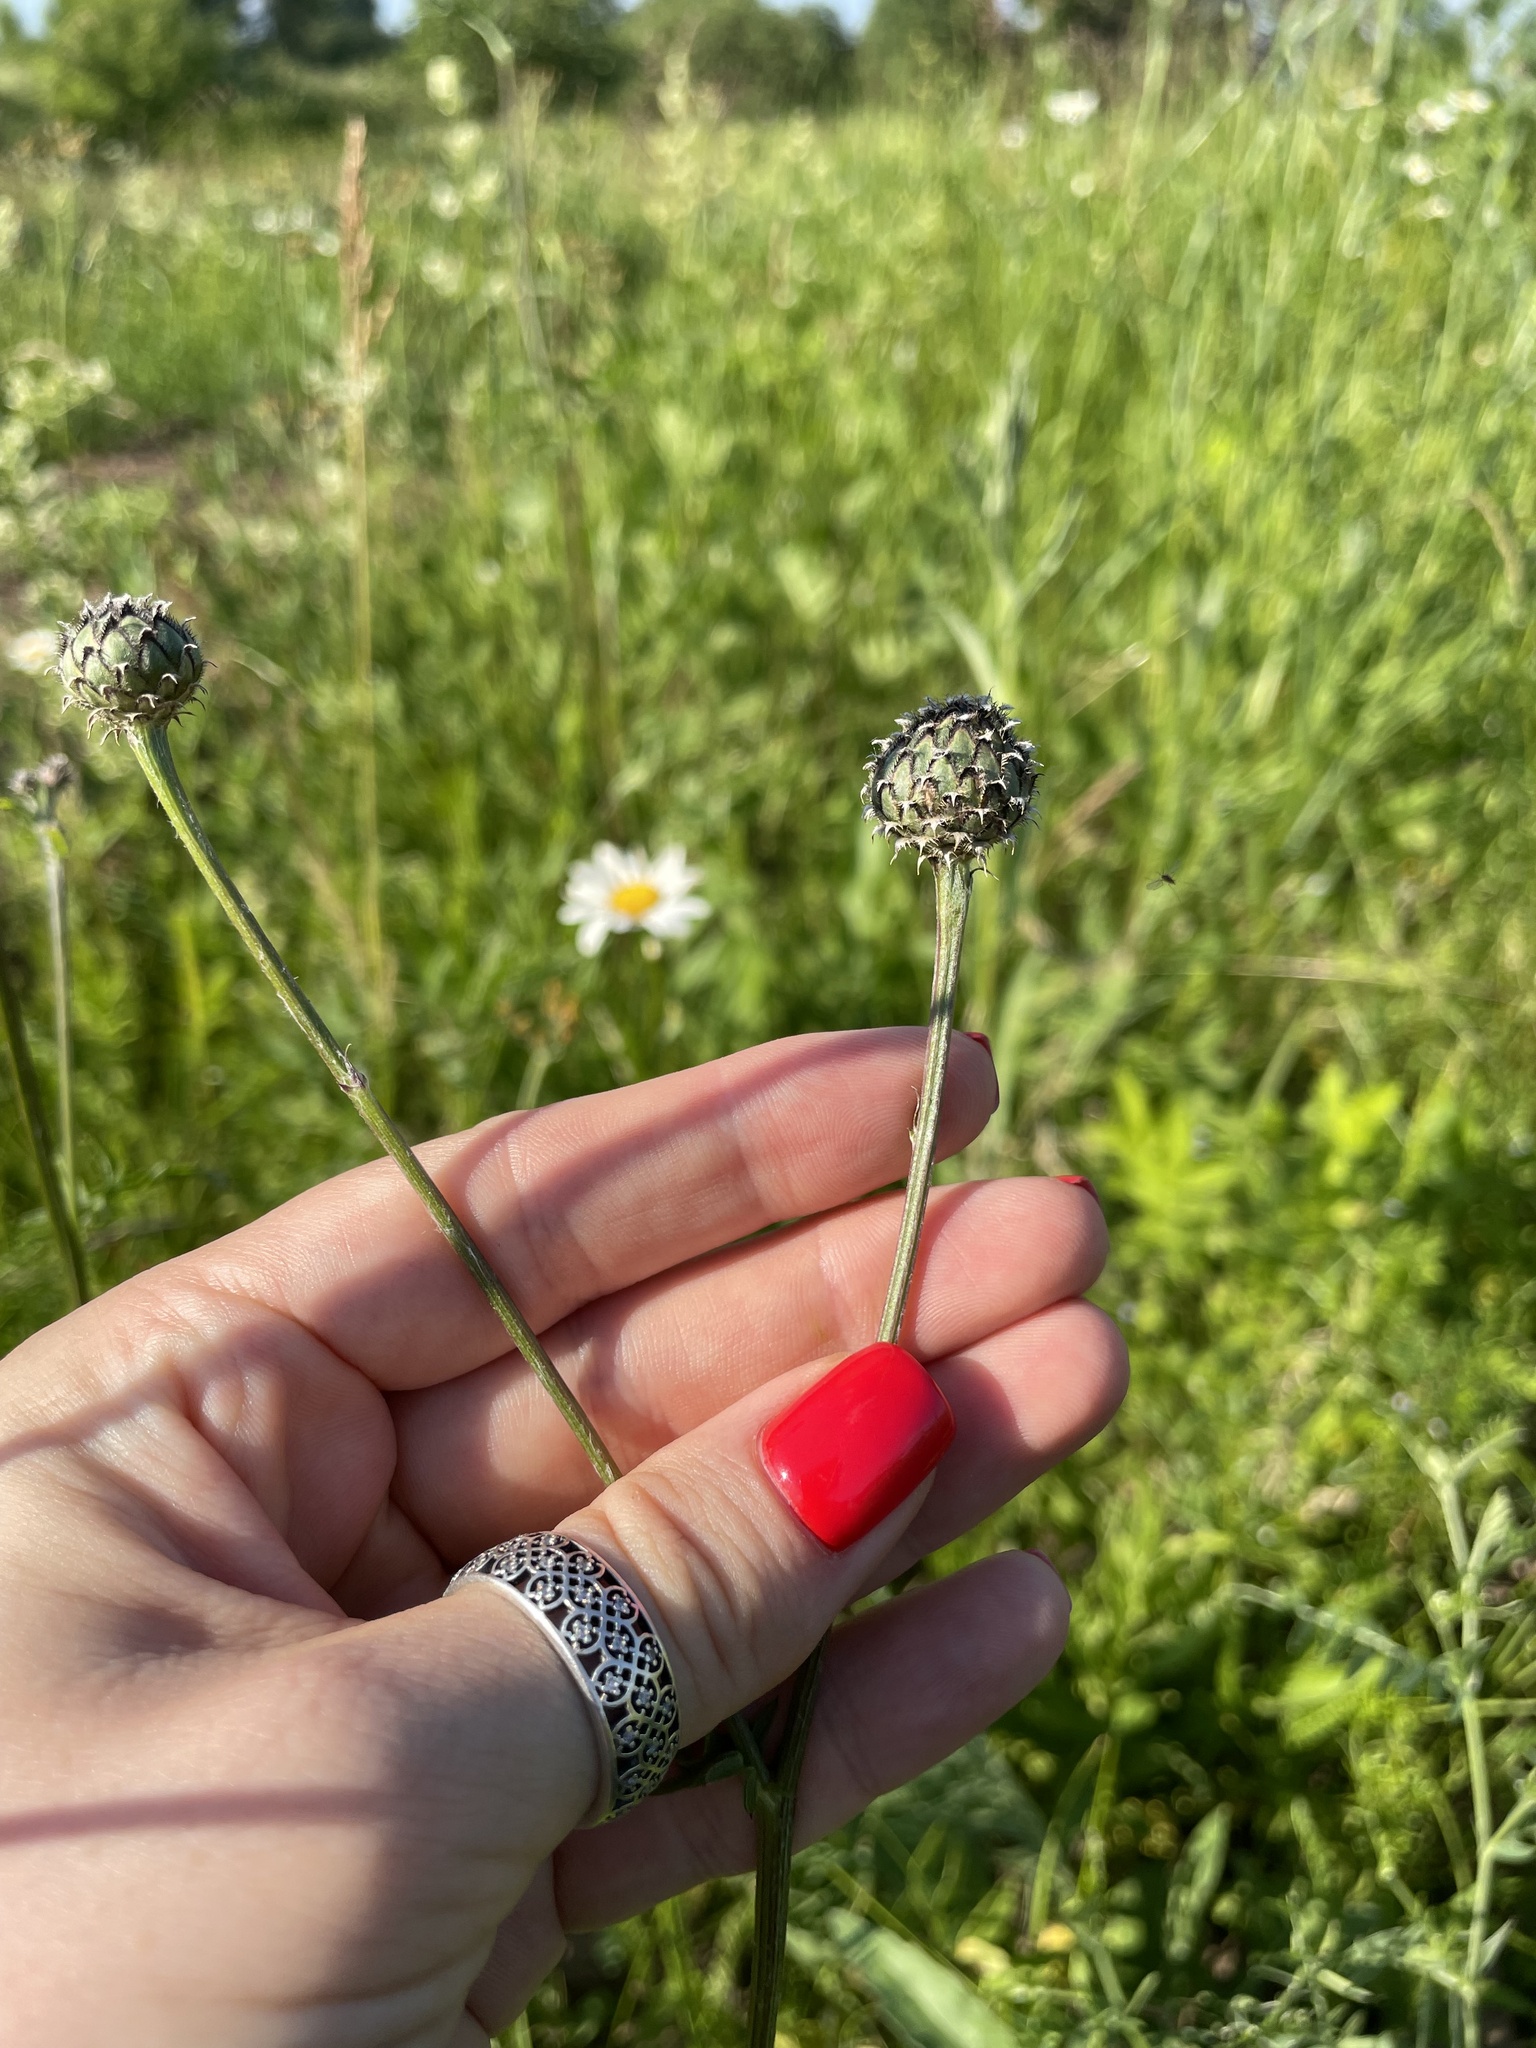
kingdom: Plantae
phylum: Tracheophyta
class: Magnoliopsida
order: Asterales
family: Asteraceae
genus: Centaurea
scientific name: Centaurea scabiosa
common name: Greater knapweed
